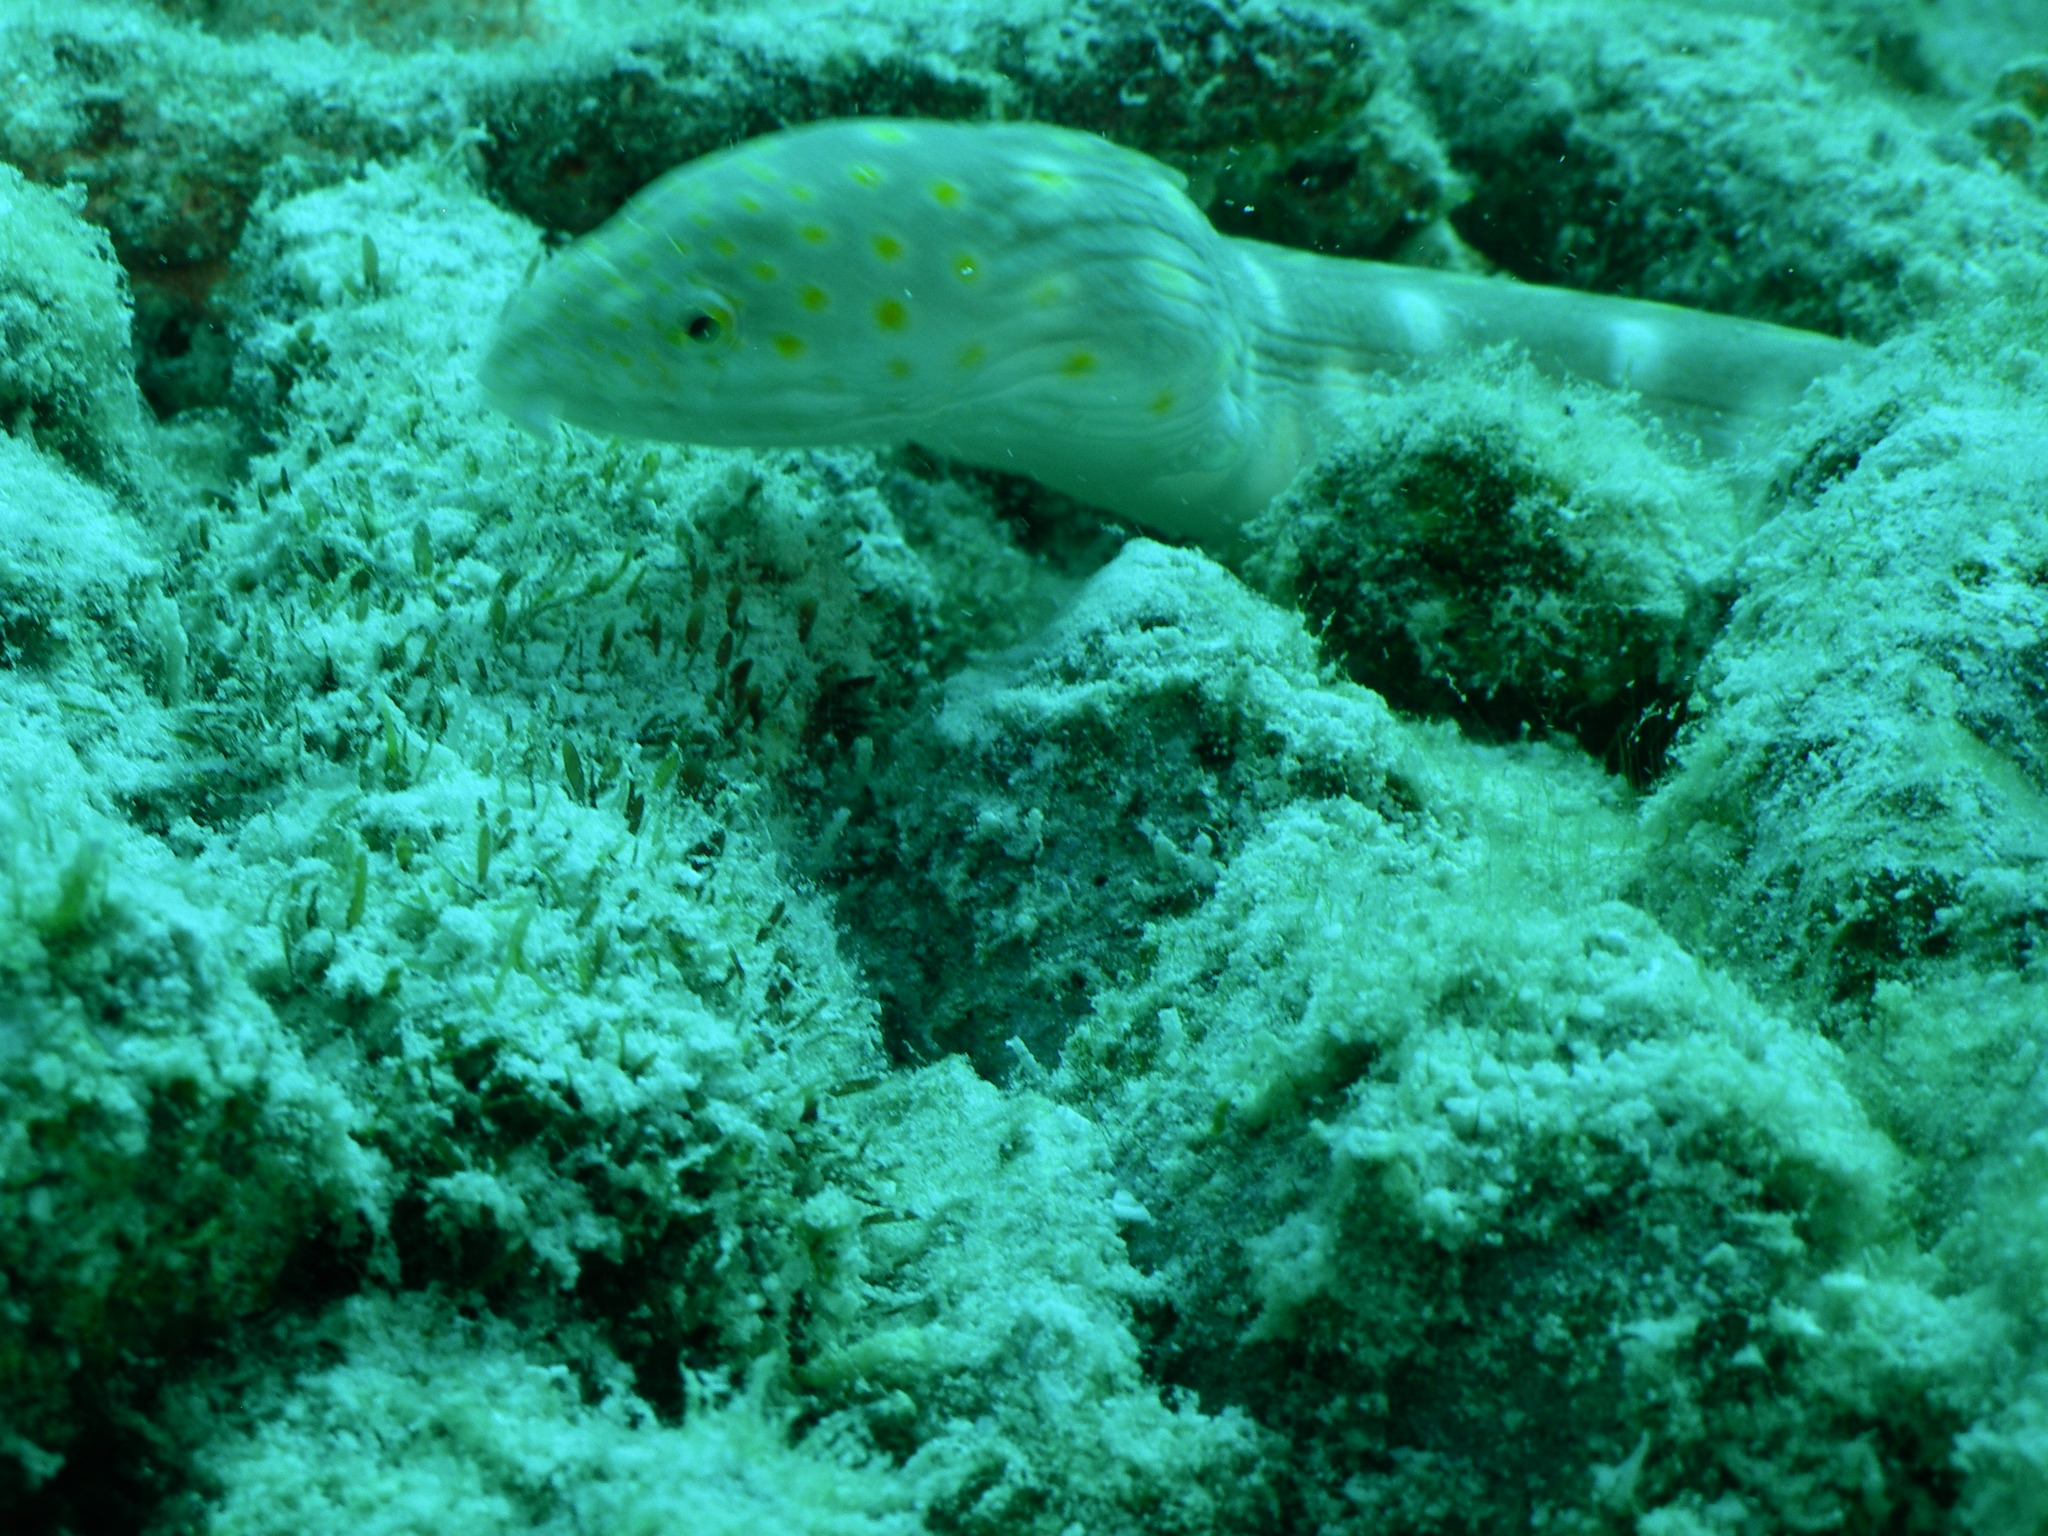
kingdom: Animalia
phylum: Chordata
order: Anguilliformes
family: Ophichthidae
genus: Myrichthys
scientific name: Myrichthys breviceps
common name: Sharptail eel
